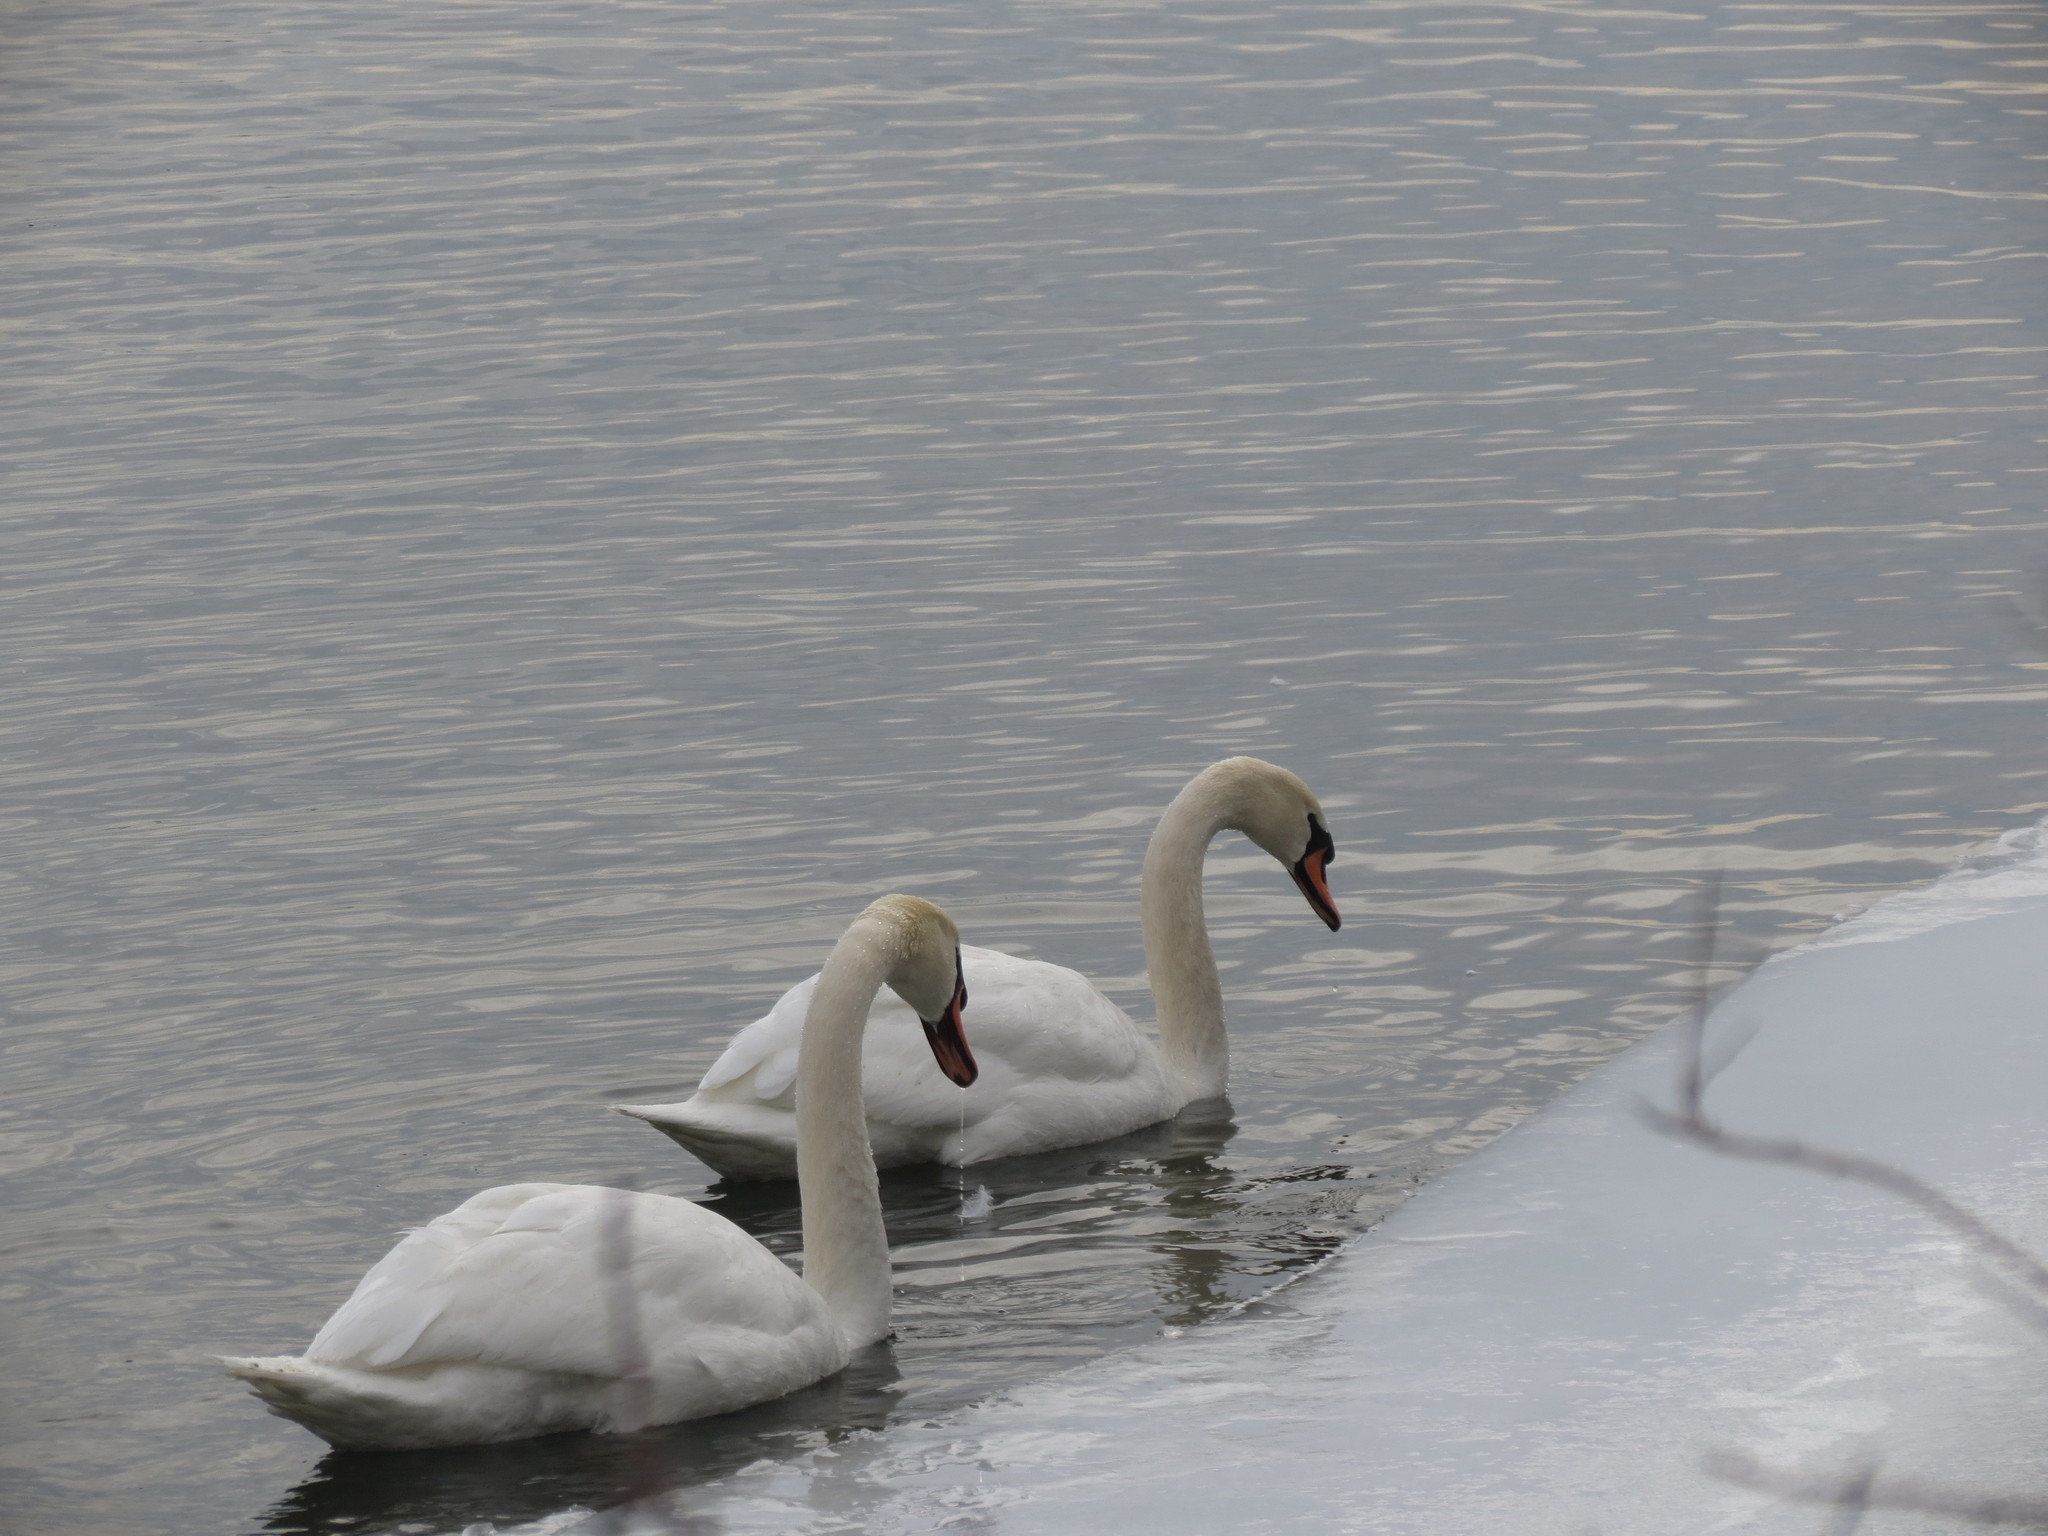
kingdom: Animalia
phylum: Chordata
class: Aves
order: Anseriformes
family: Anatidae
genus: Cygnus
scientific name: Cygnus olor
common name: Mute swan
